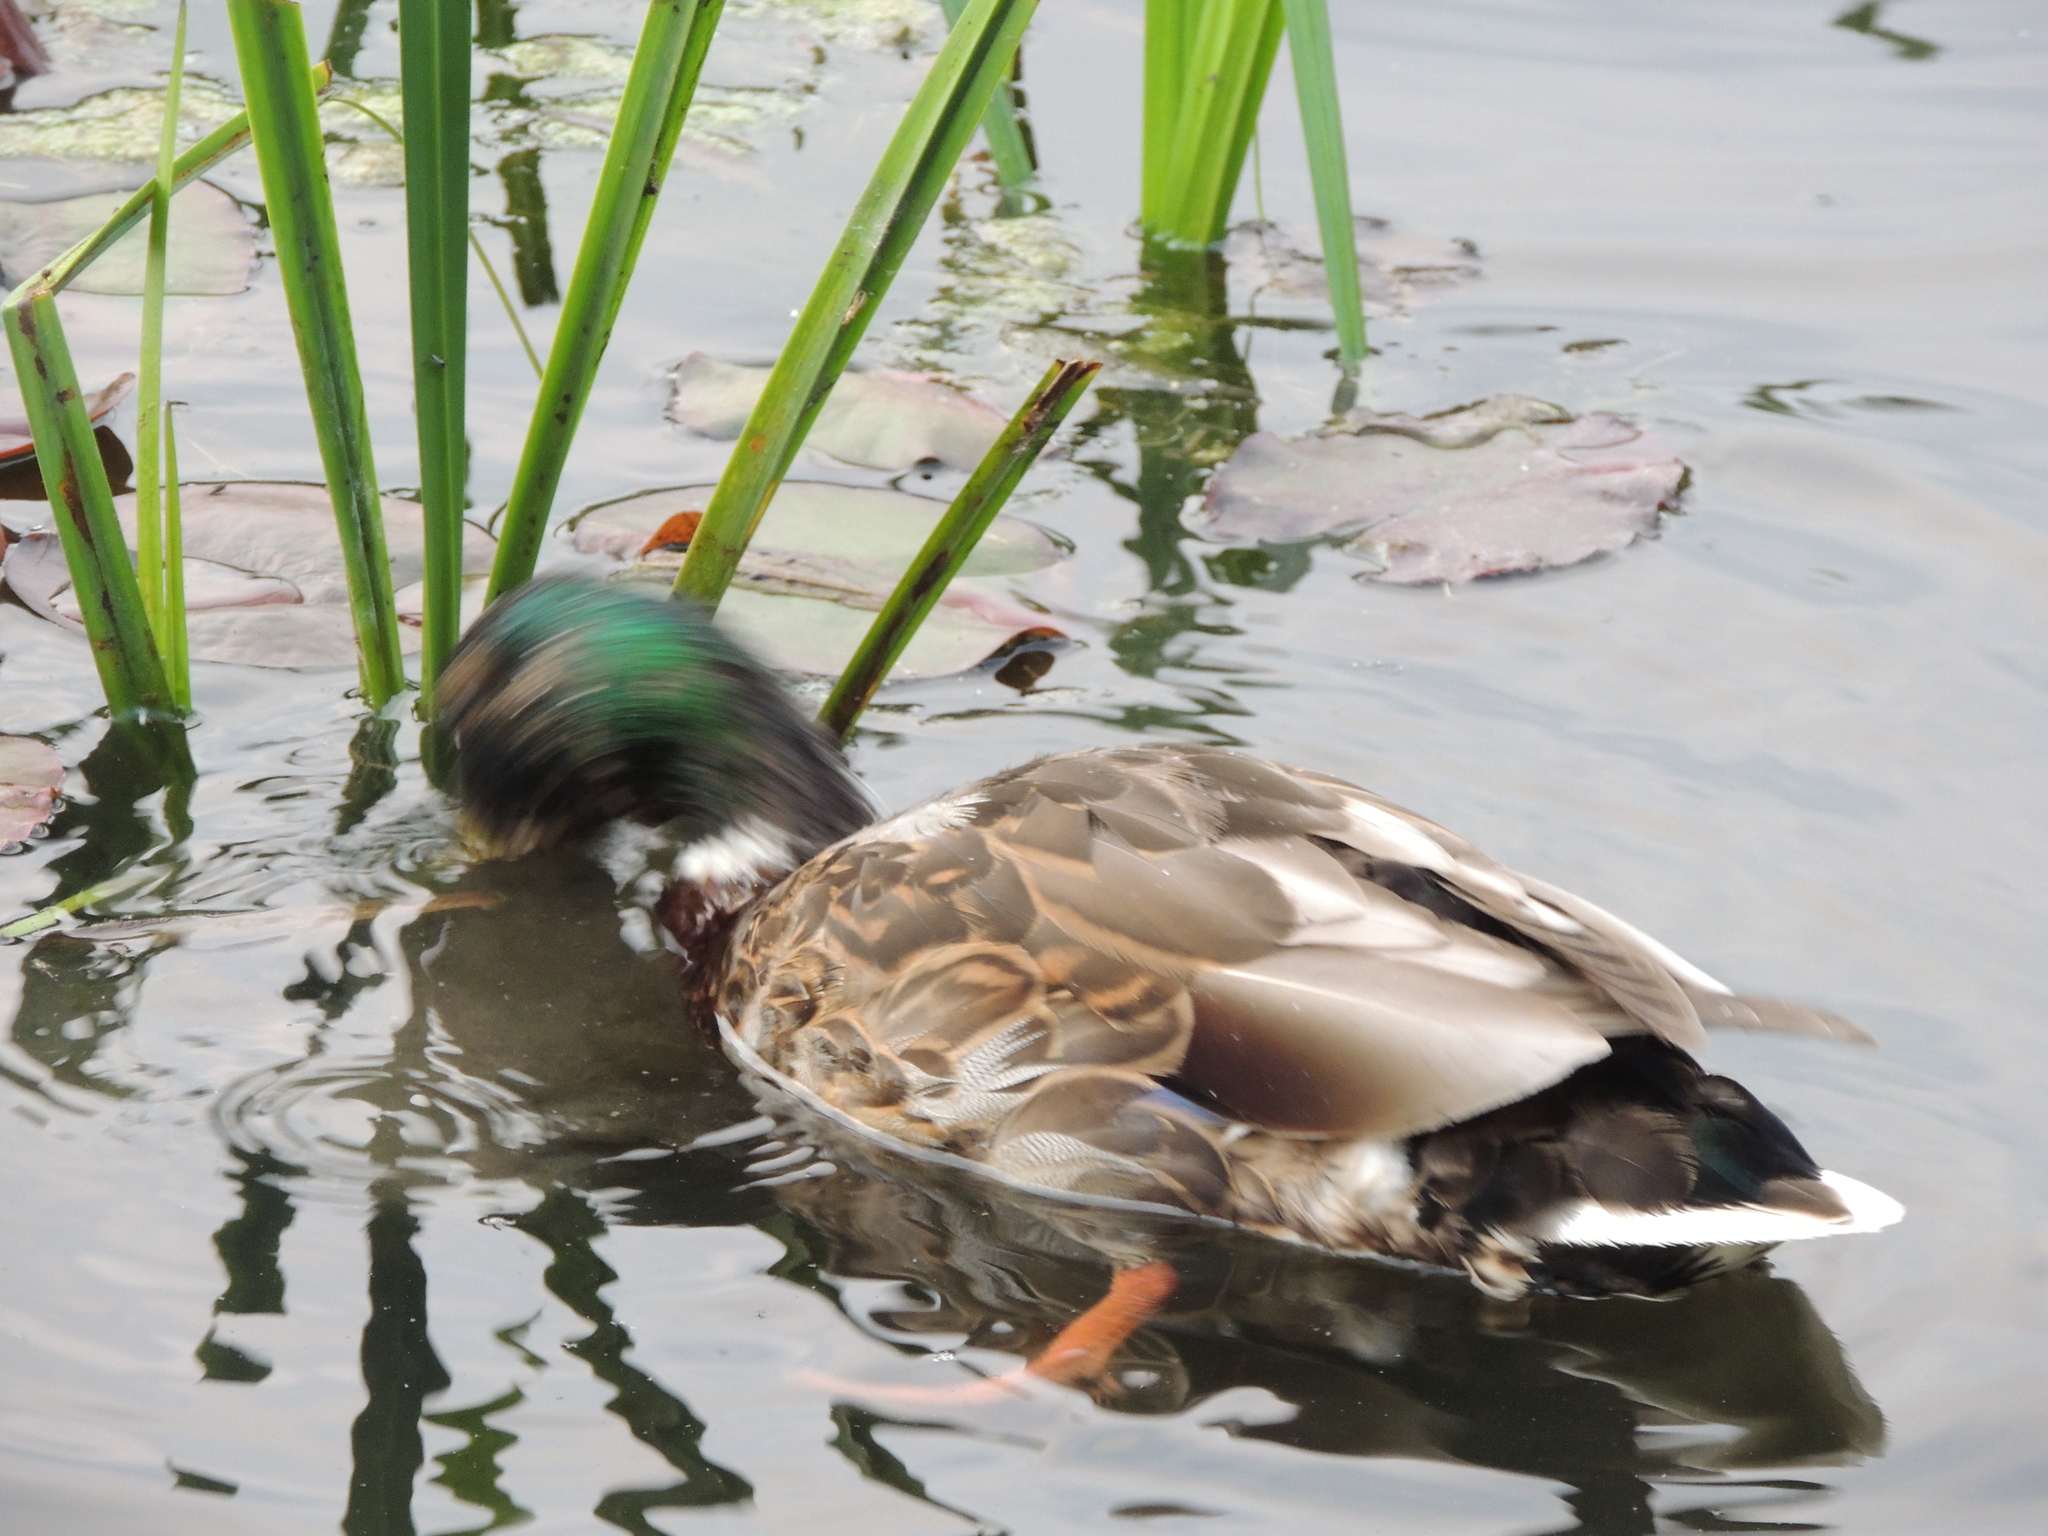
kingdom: Animalia
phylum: Chordata
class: Aves
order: Anseriformes
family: Anatidae
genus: Anas
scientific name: Anas platyrhynchos
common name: Mallard
